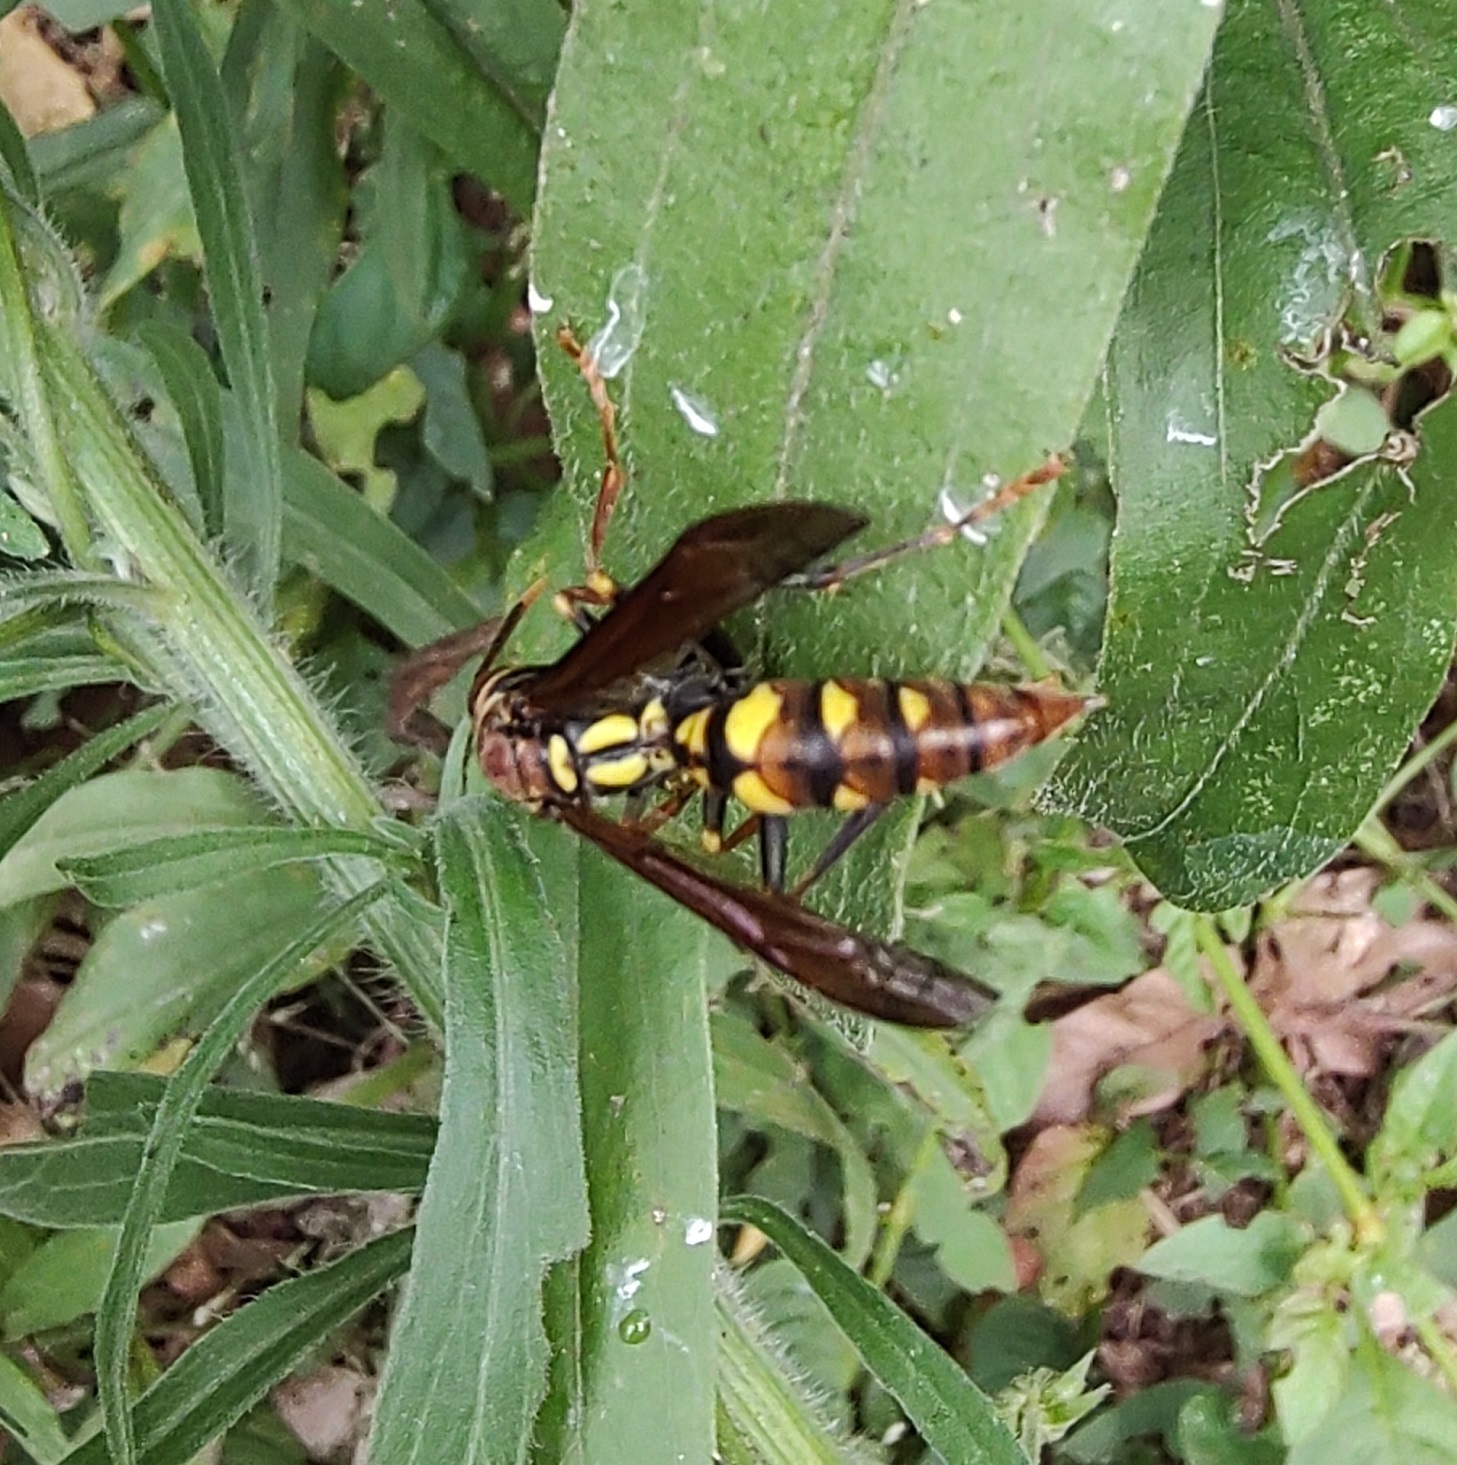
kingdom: Animalia
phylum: Arthropoda
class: Insecta
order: Hymenoptera
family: Eumenidae
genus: Polistes
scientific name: Polistes versicolor
